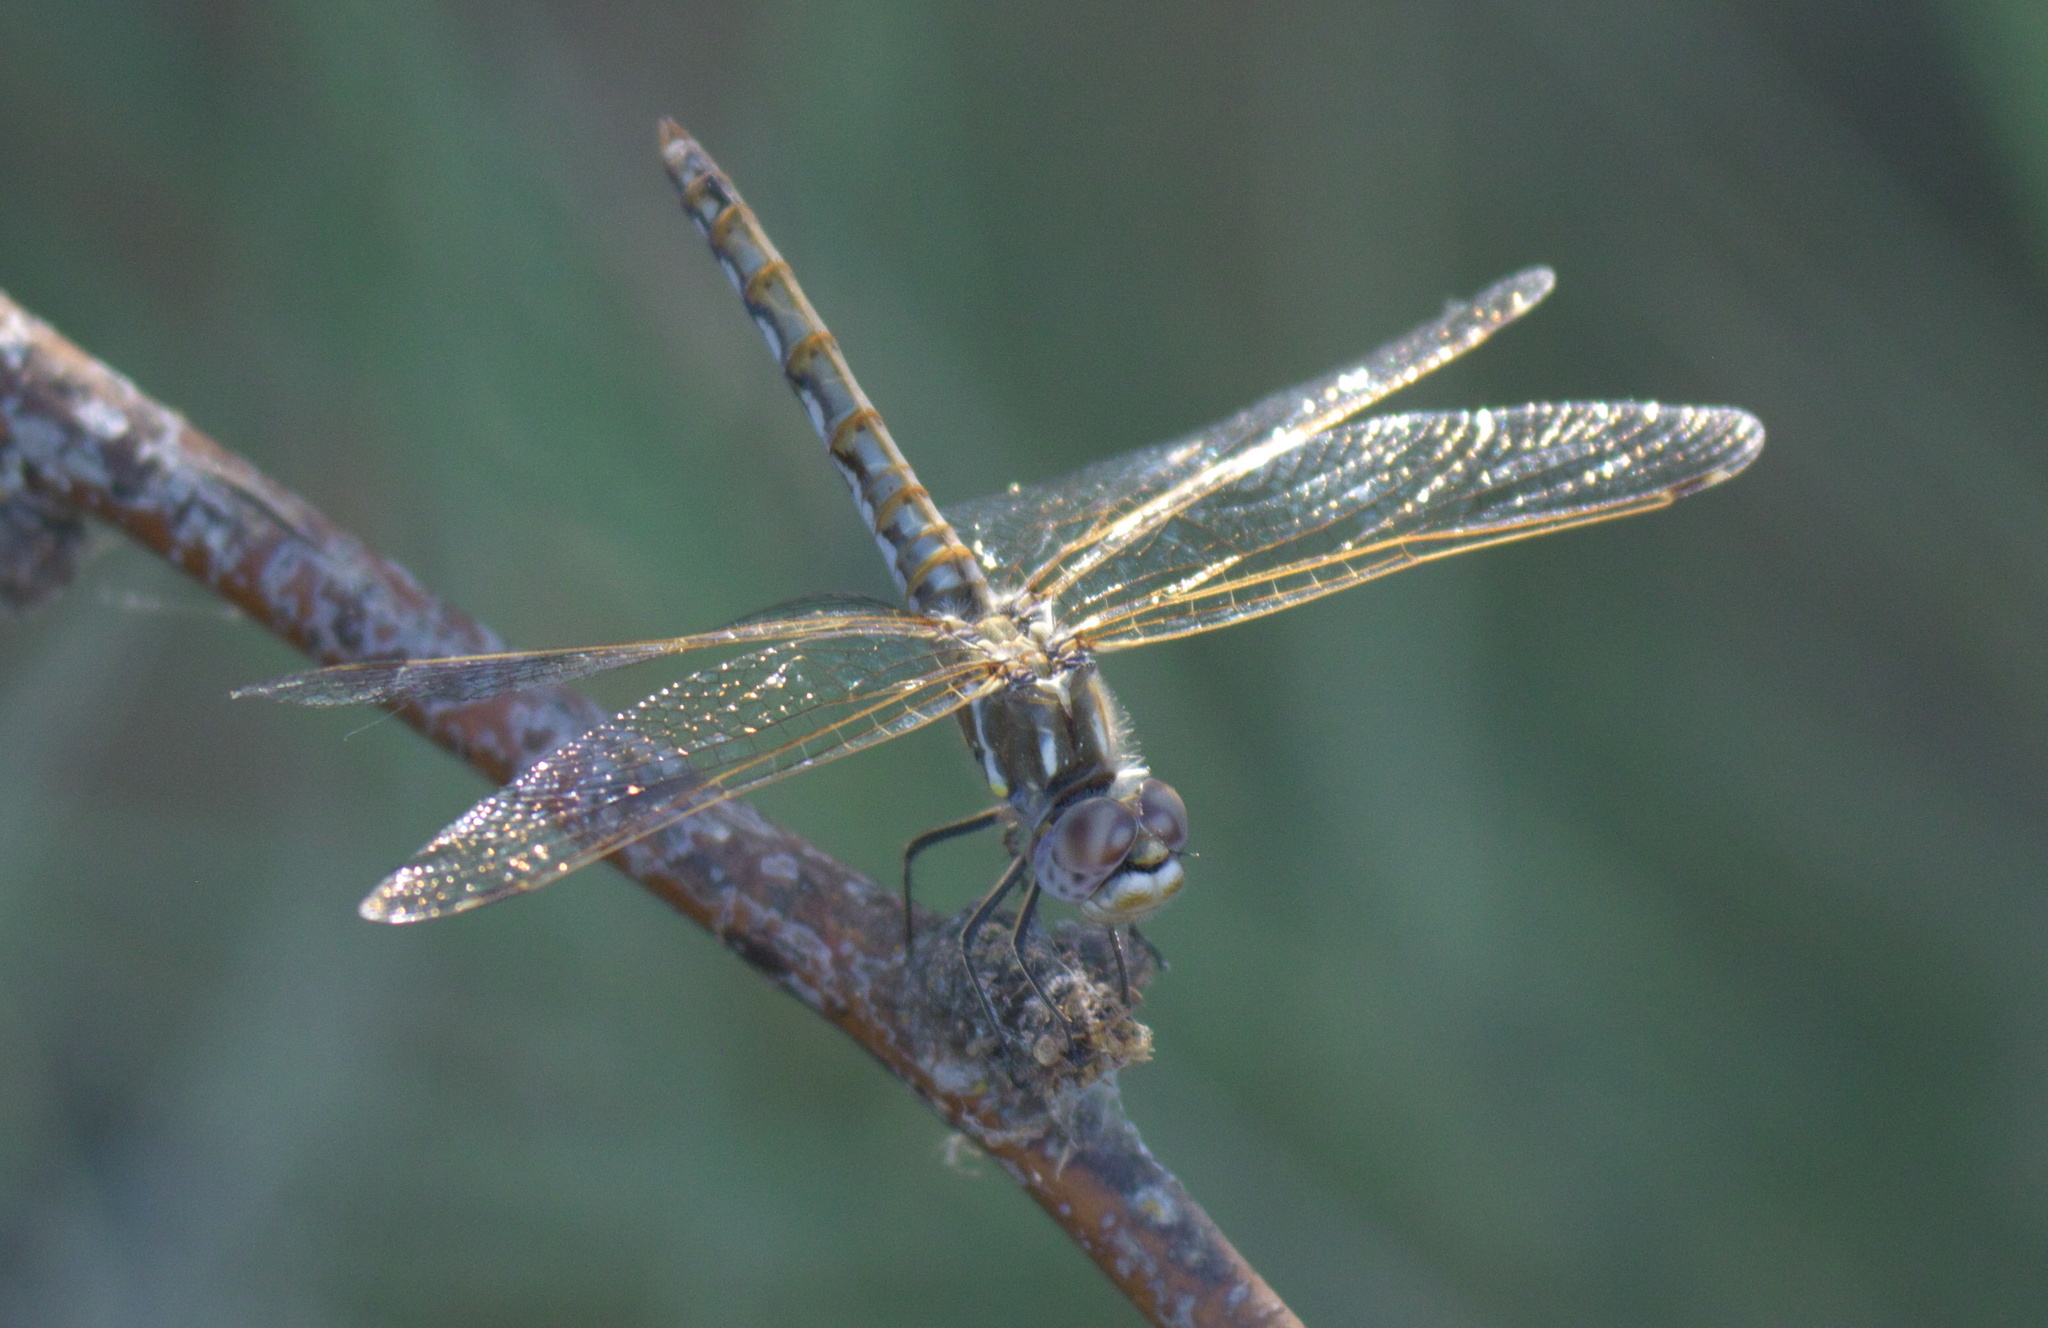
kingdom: Animalia
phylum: Arthropoda
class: Insecta
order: Odonata
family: Libellulidae
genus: Sympetrum
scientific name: Sympetrum corruptum
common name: Variegated meadowhawk
